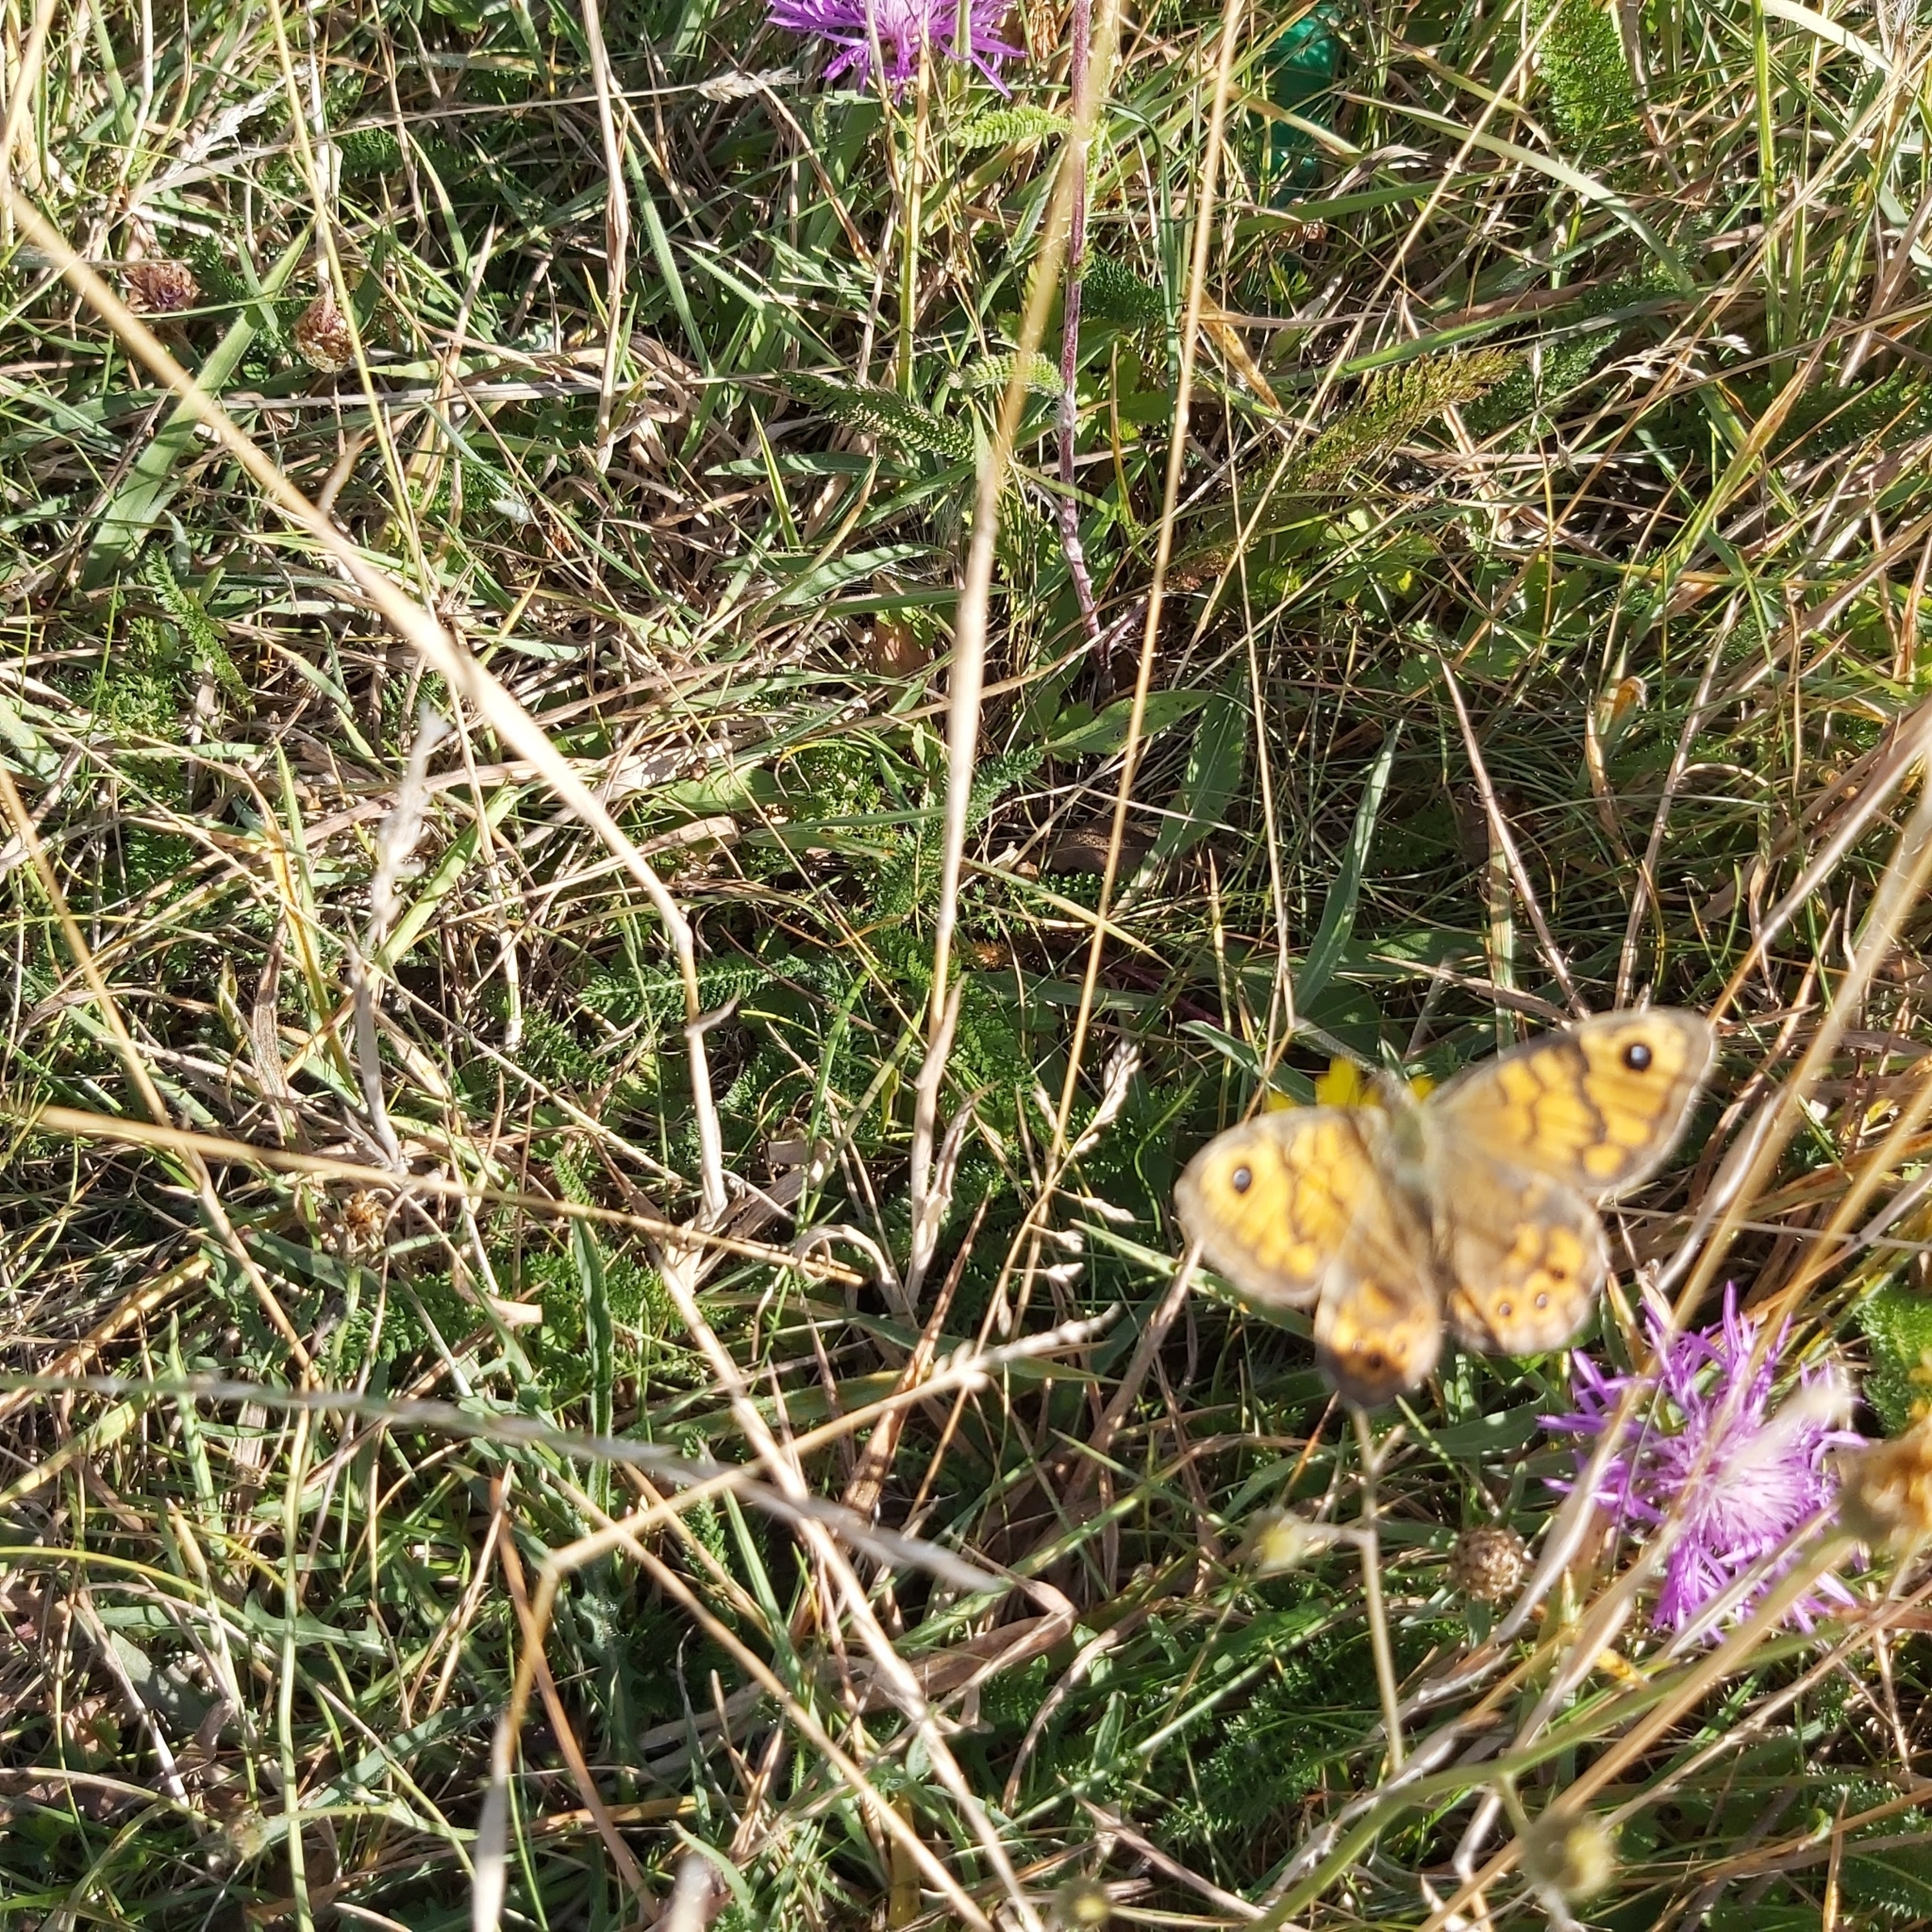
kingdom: Animalia
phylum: Arthropoda
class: Insecta
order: Lepidoptera
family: Nymphalidae
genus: Pararge
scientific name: Pararge Lasiommata megera
